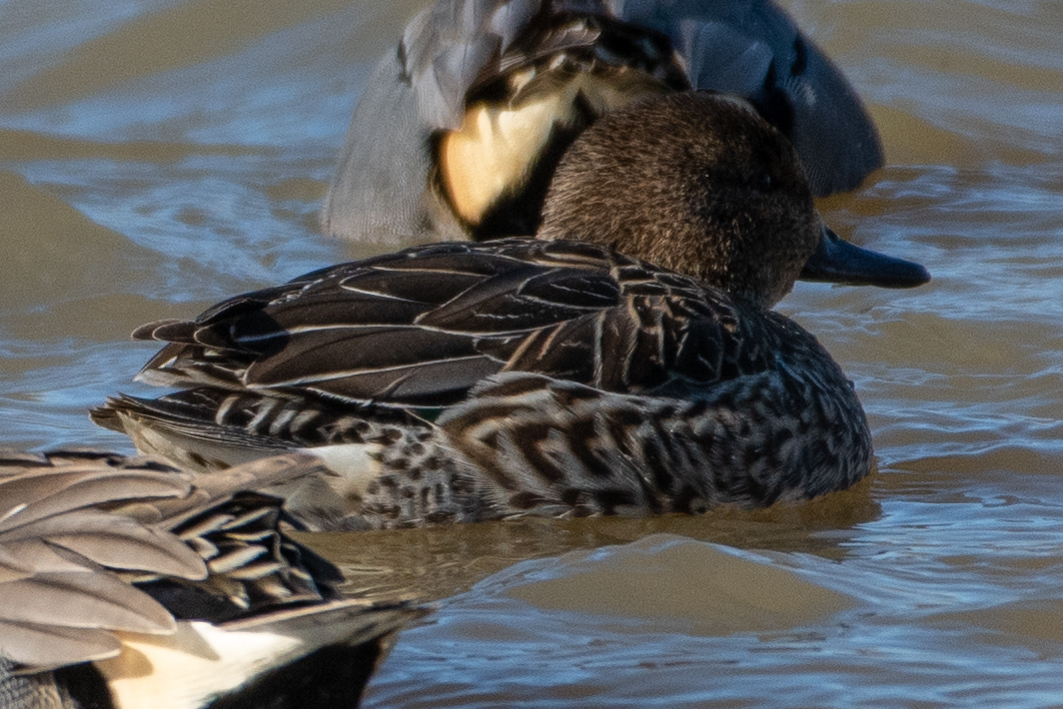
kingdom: Animalia
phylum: Chordata
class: Aves
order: Anseriformes
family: Anatidae
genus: Anas
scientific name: Anas crecca
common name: Eurasian teal
